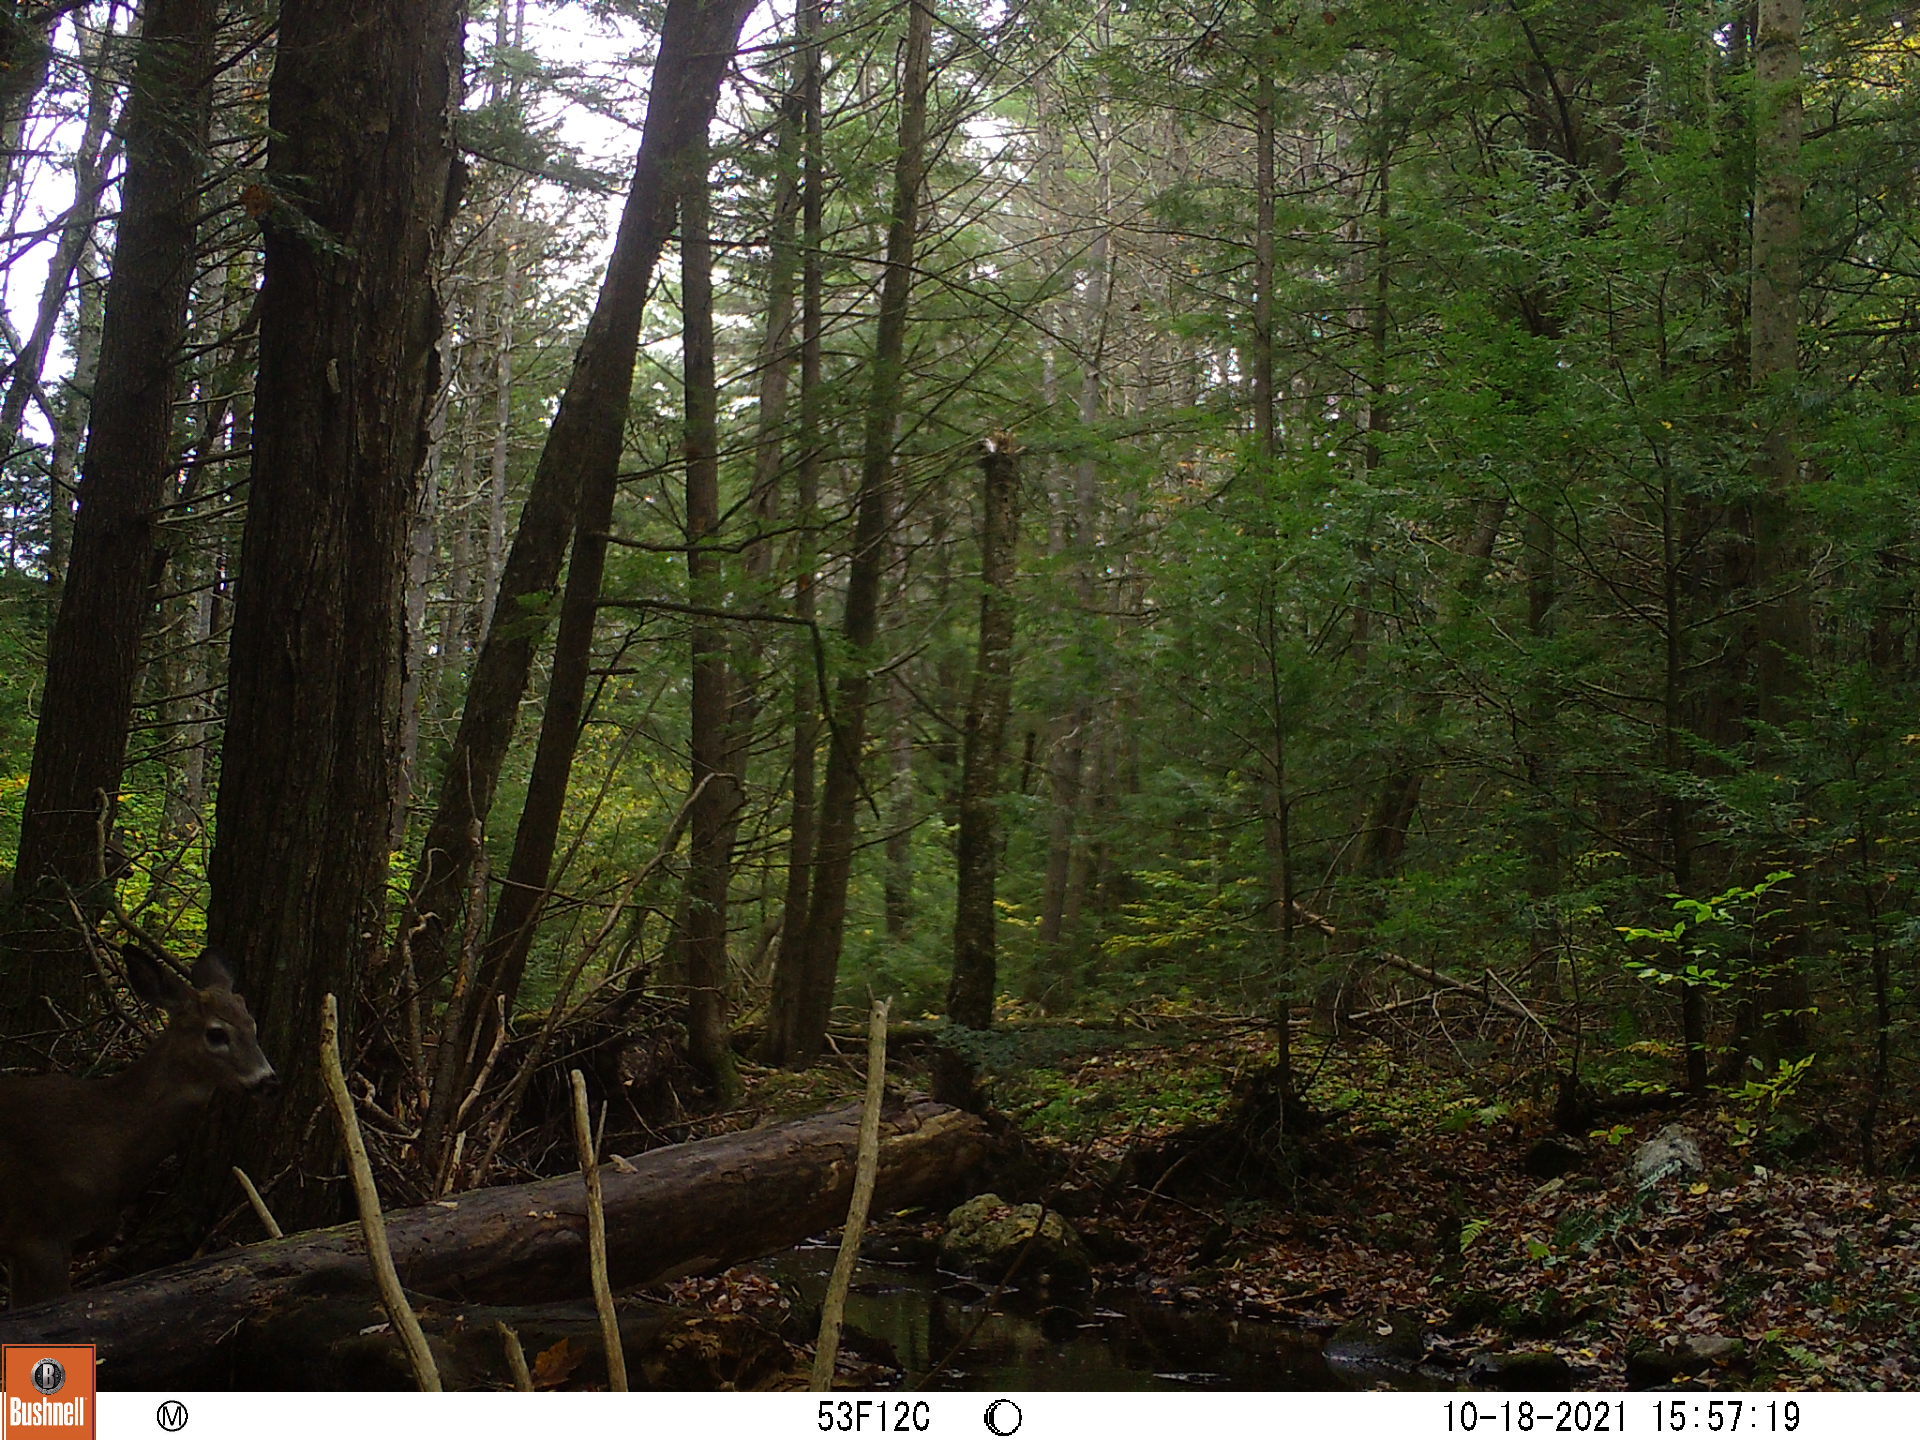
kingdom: Animalia
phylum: Chordata
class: Mammalia
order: Artiodactyla
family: Cervidae
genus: Odocoileus
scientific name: Odocoileus virginianus
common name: White-tailed deer
